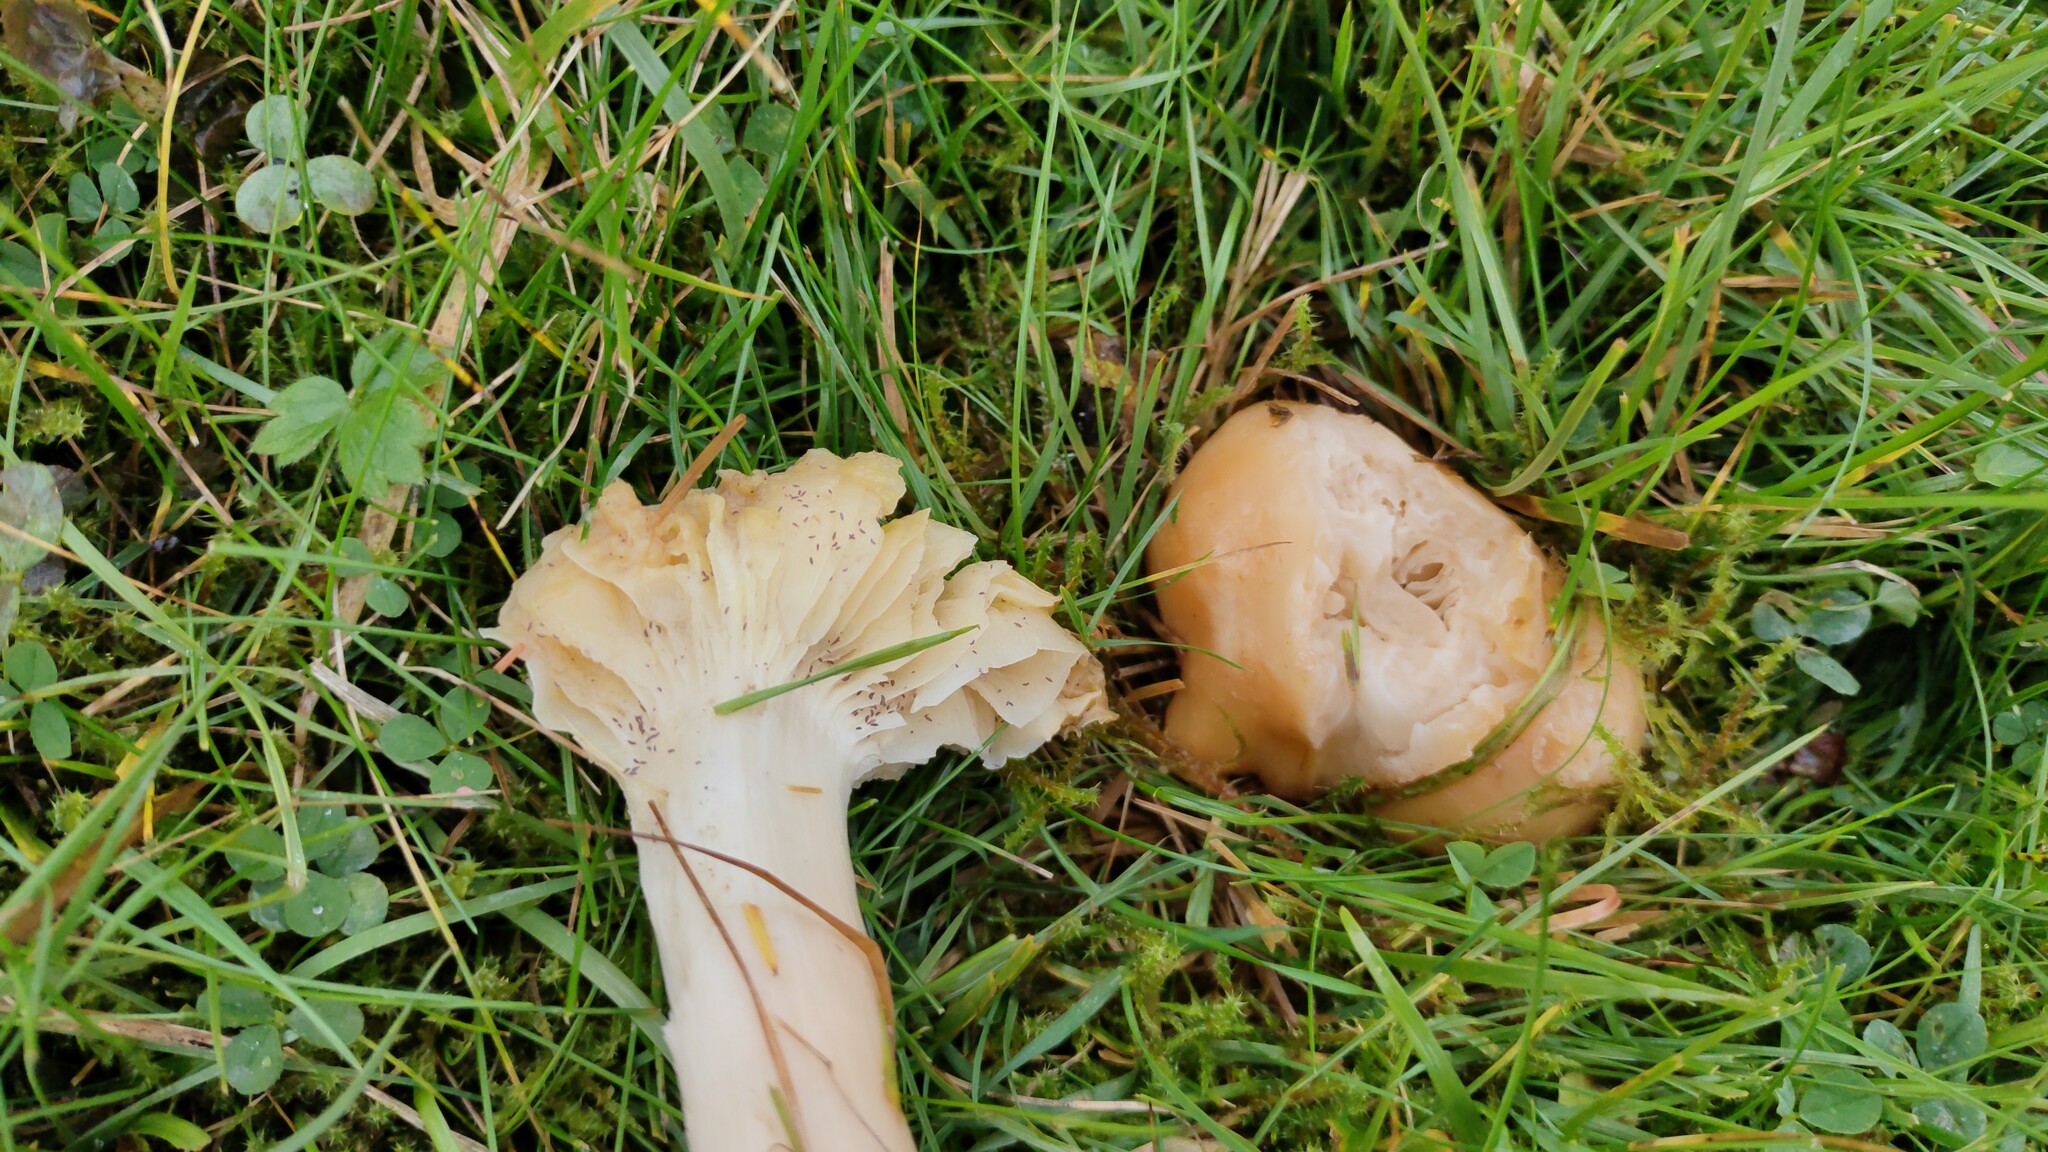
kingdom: Fungi
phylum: Basidiomycota
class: Agaricomycetes
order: Agaricales
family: Hygrophoraceae
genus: Cuphophyllus
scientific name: Cuphophyllus pratensis
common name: Meadow waxcap
